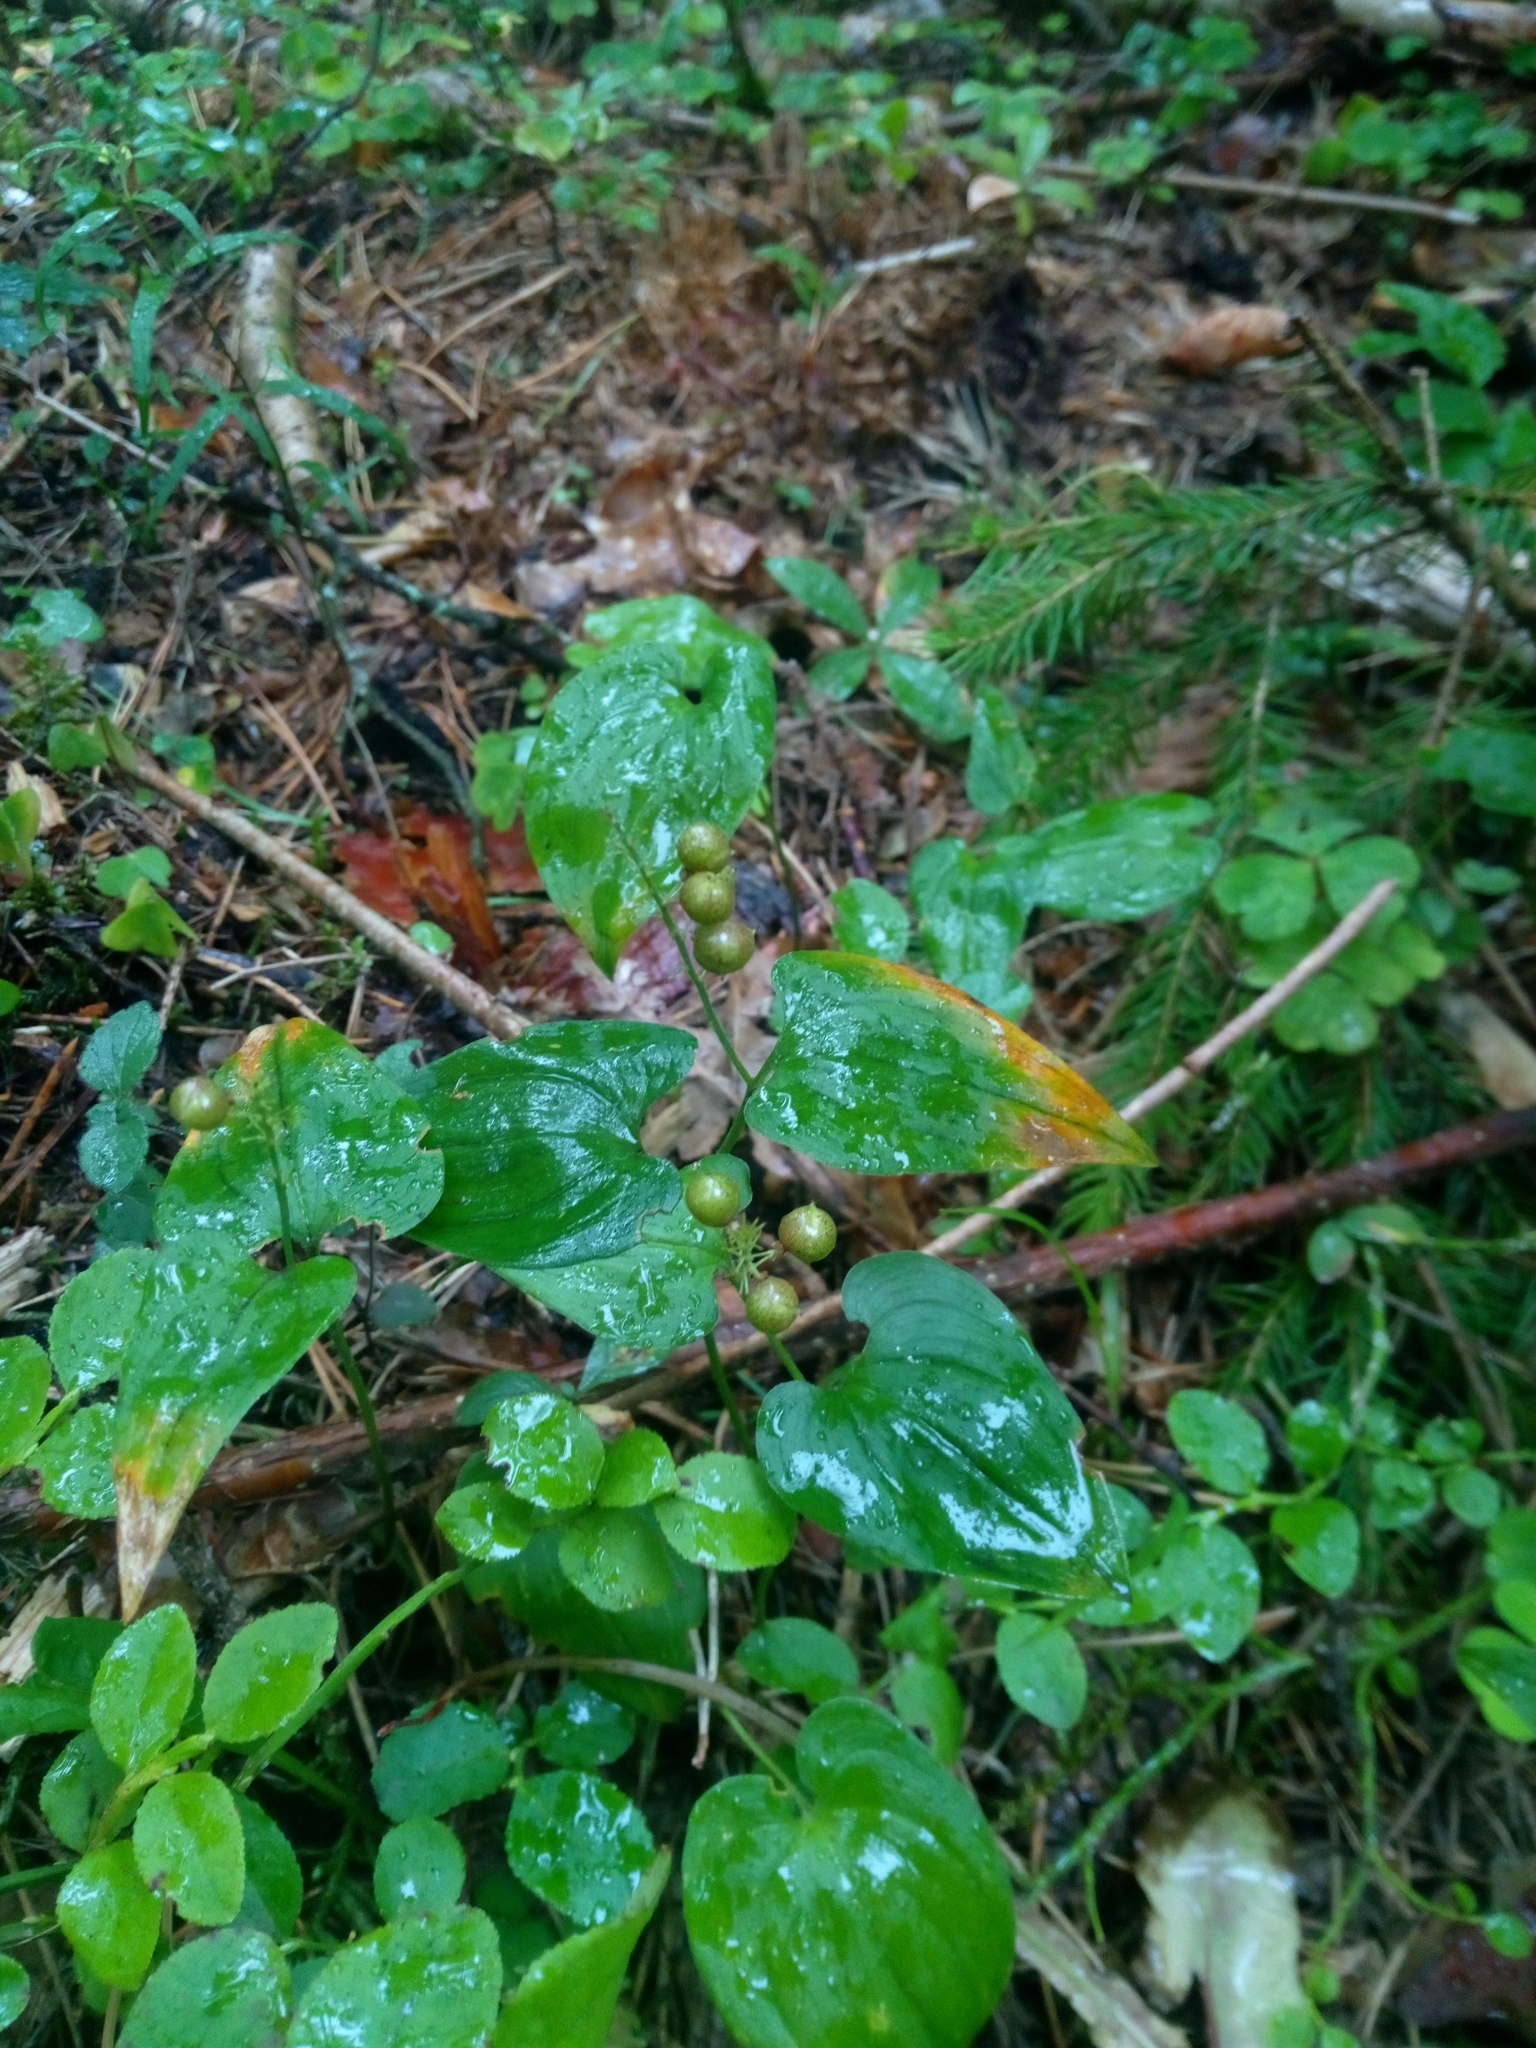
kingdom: Plantae
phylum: Tracheophyta
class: Liliopsida
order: Asparagales
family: Asparagaceae
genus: Maianthemum
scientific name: Maianthemum bifolium
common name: May lily
